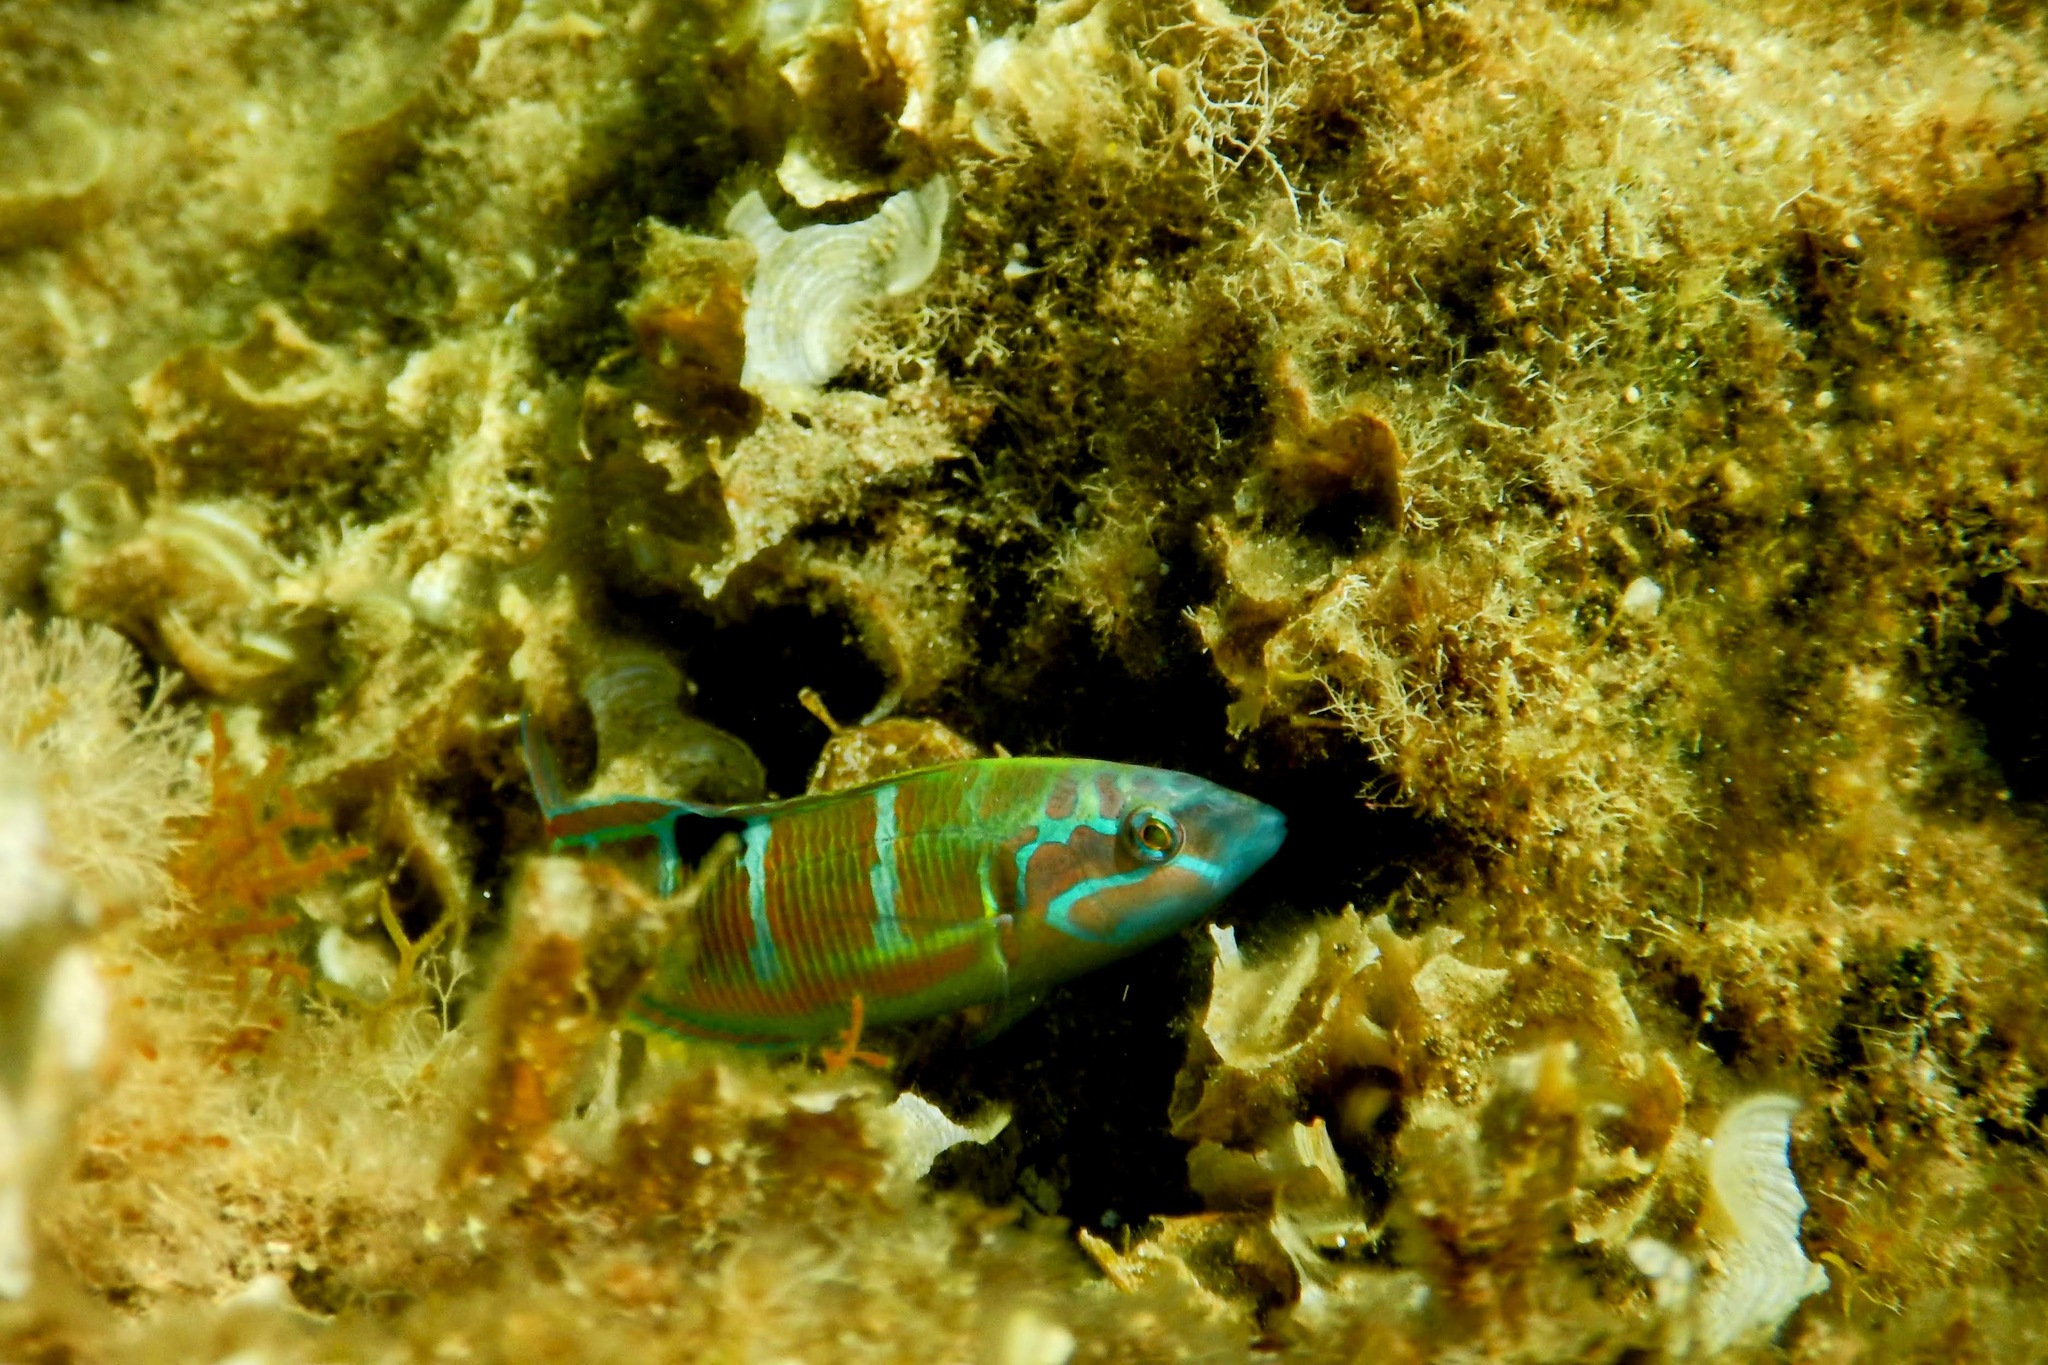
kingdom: Animalia
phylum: Chordata
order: Perciformes
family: Labridae
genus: Thalassoma
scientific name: Thalassoma pavo
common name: Ornate wrasse
